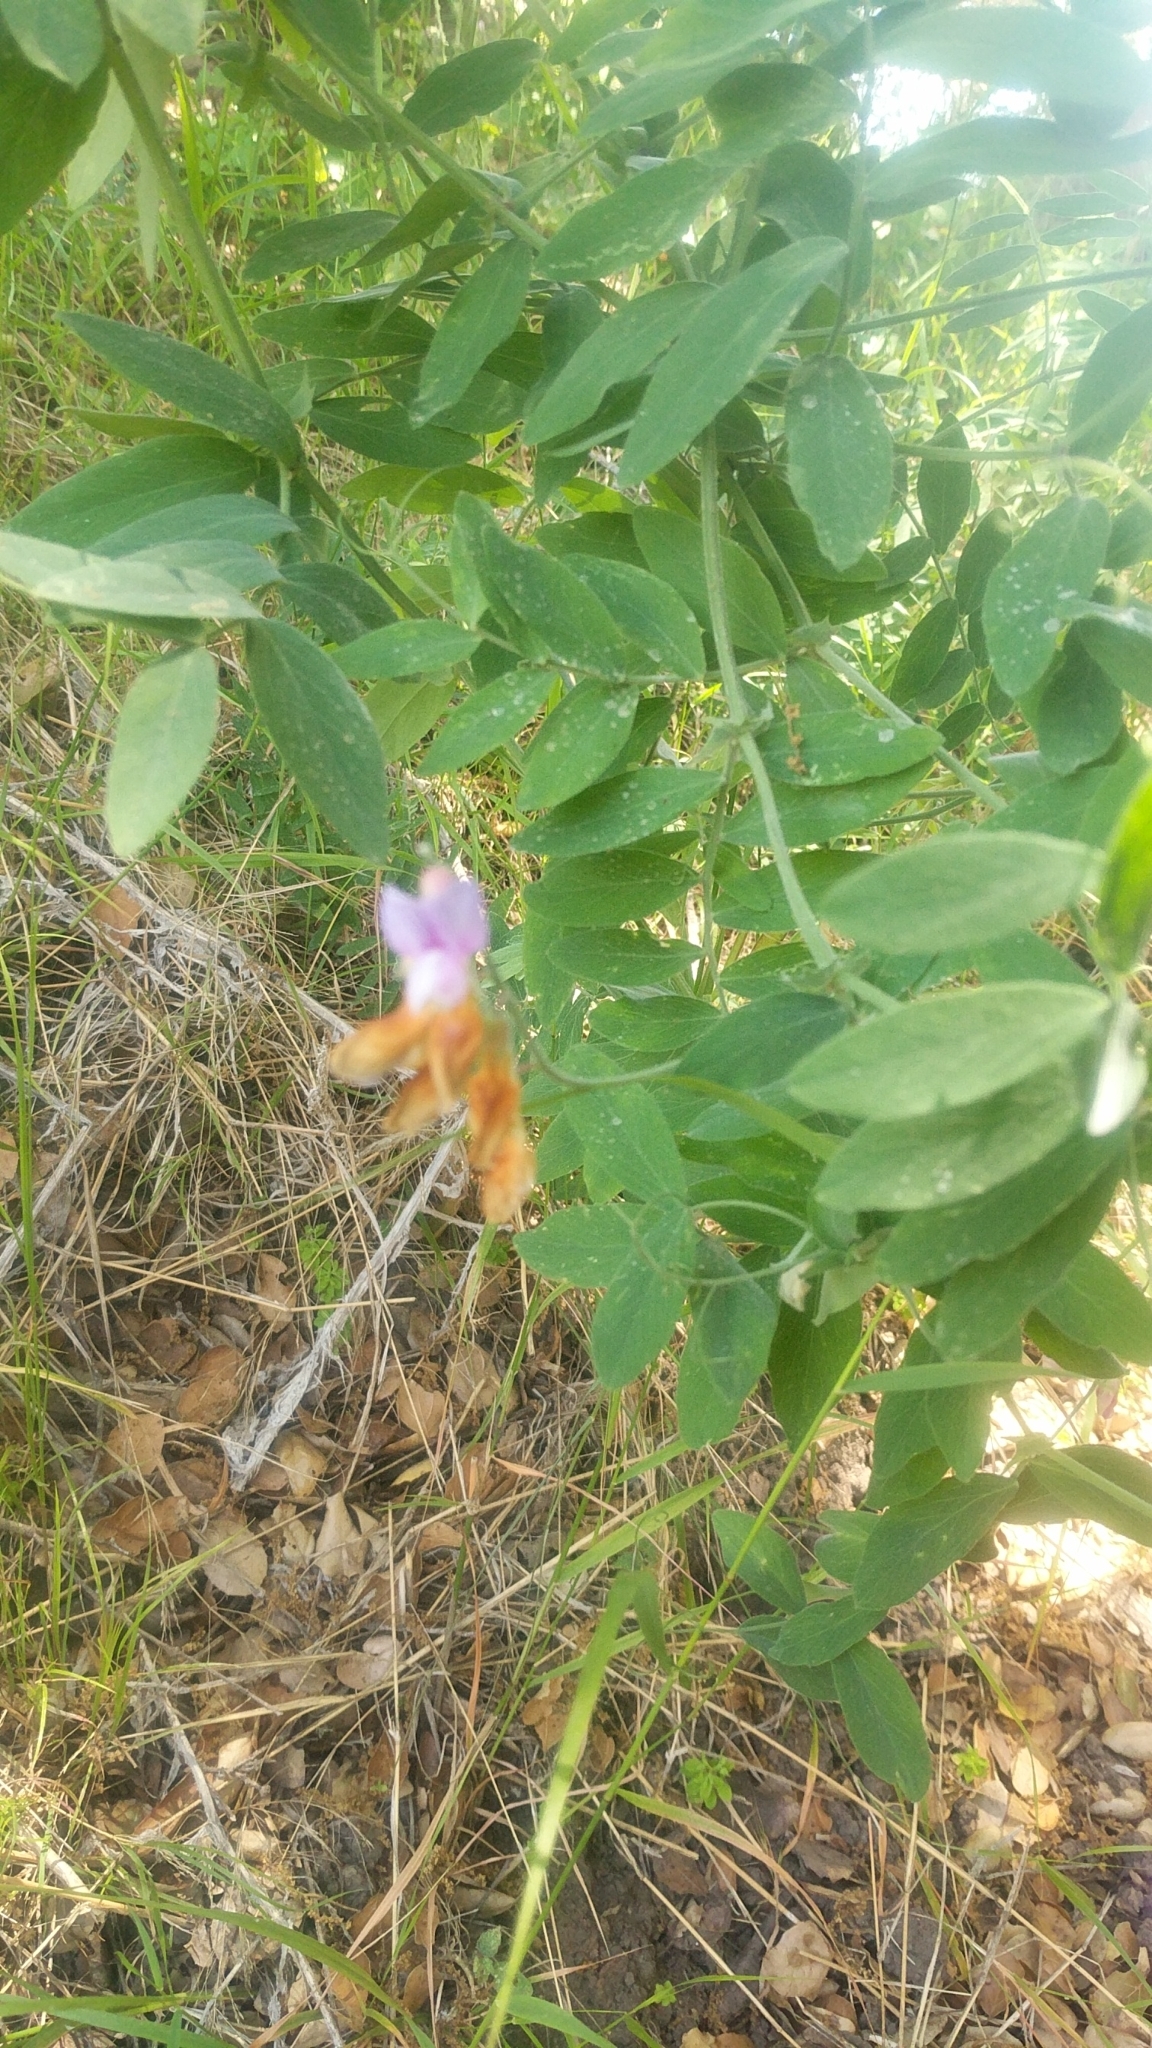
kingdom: Plantae
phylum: Tracheophyta
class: Magnoliopsida
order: Fabales
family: Fabaceae
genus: Lathyrus
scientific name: Lathyrus vestitus
